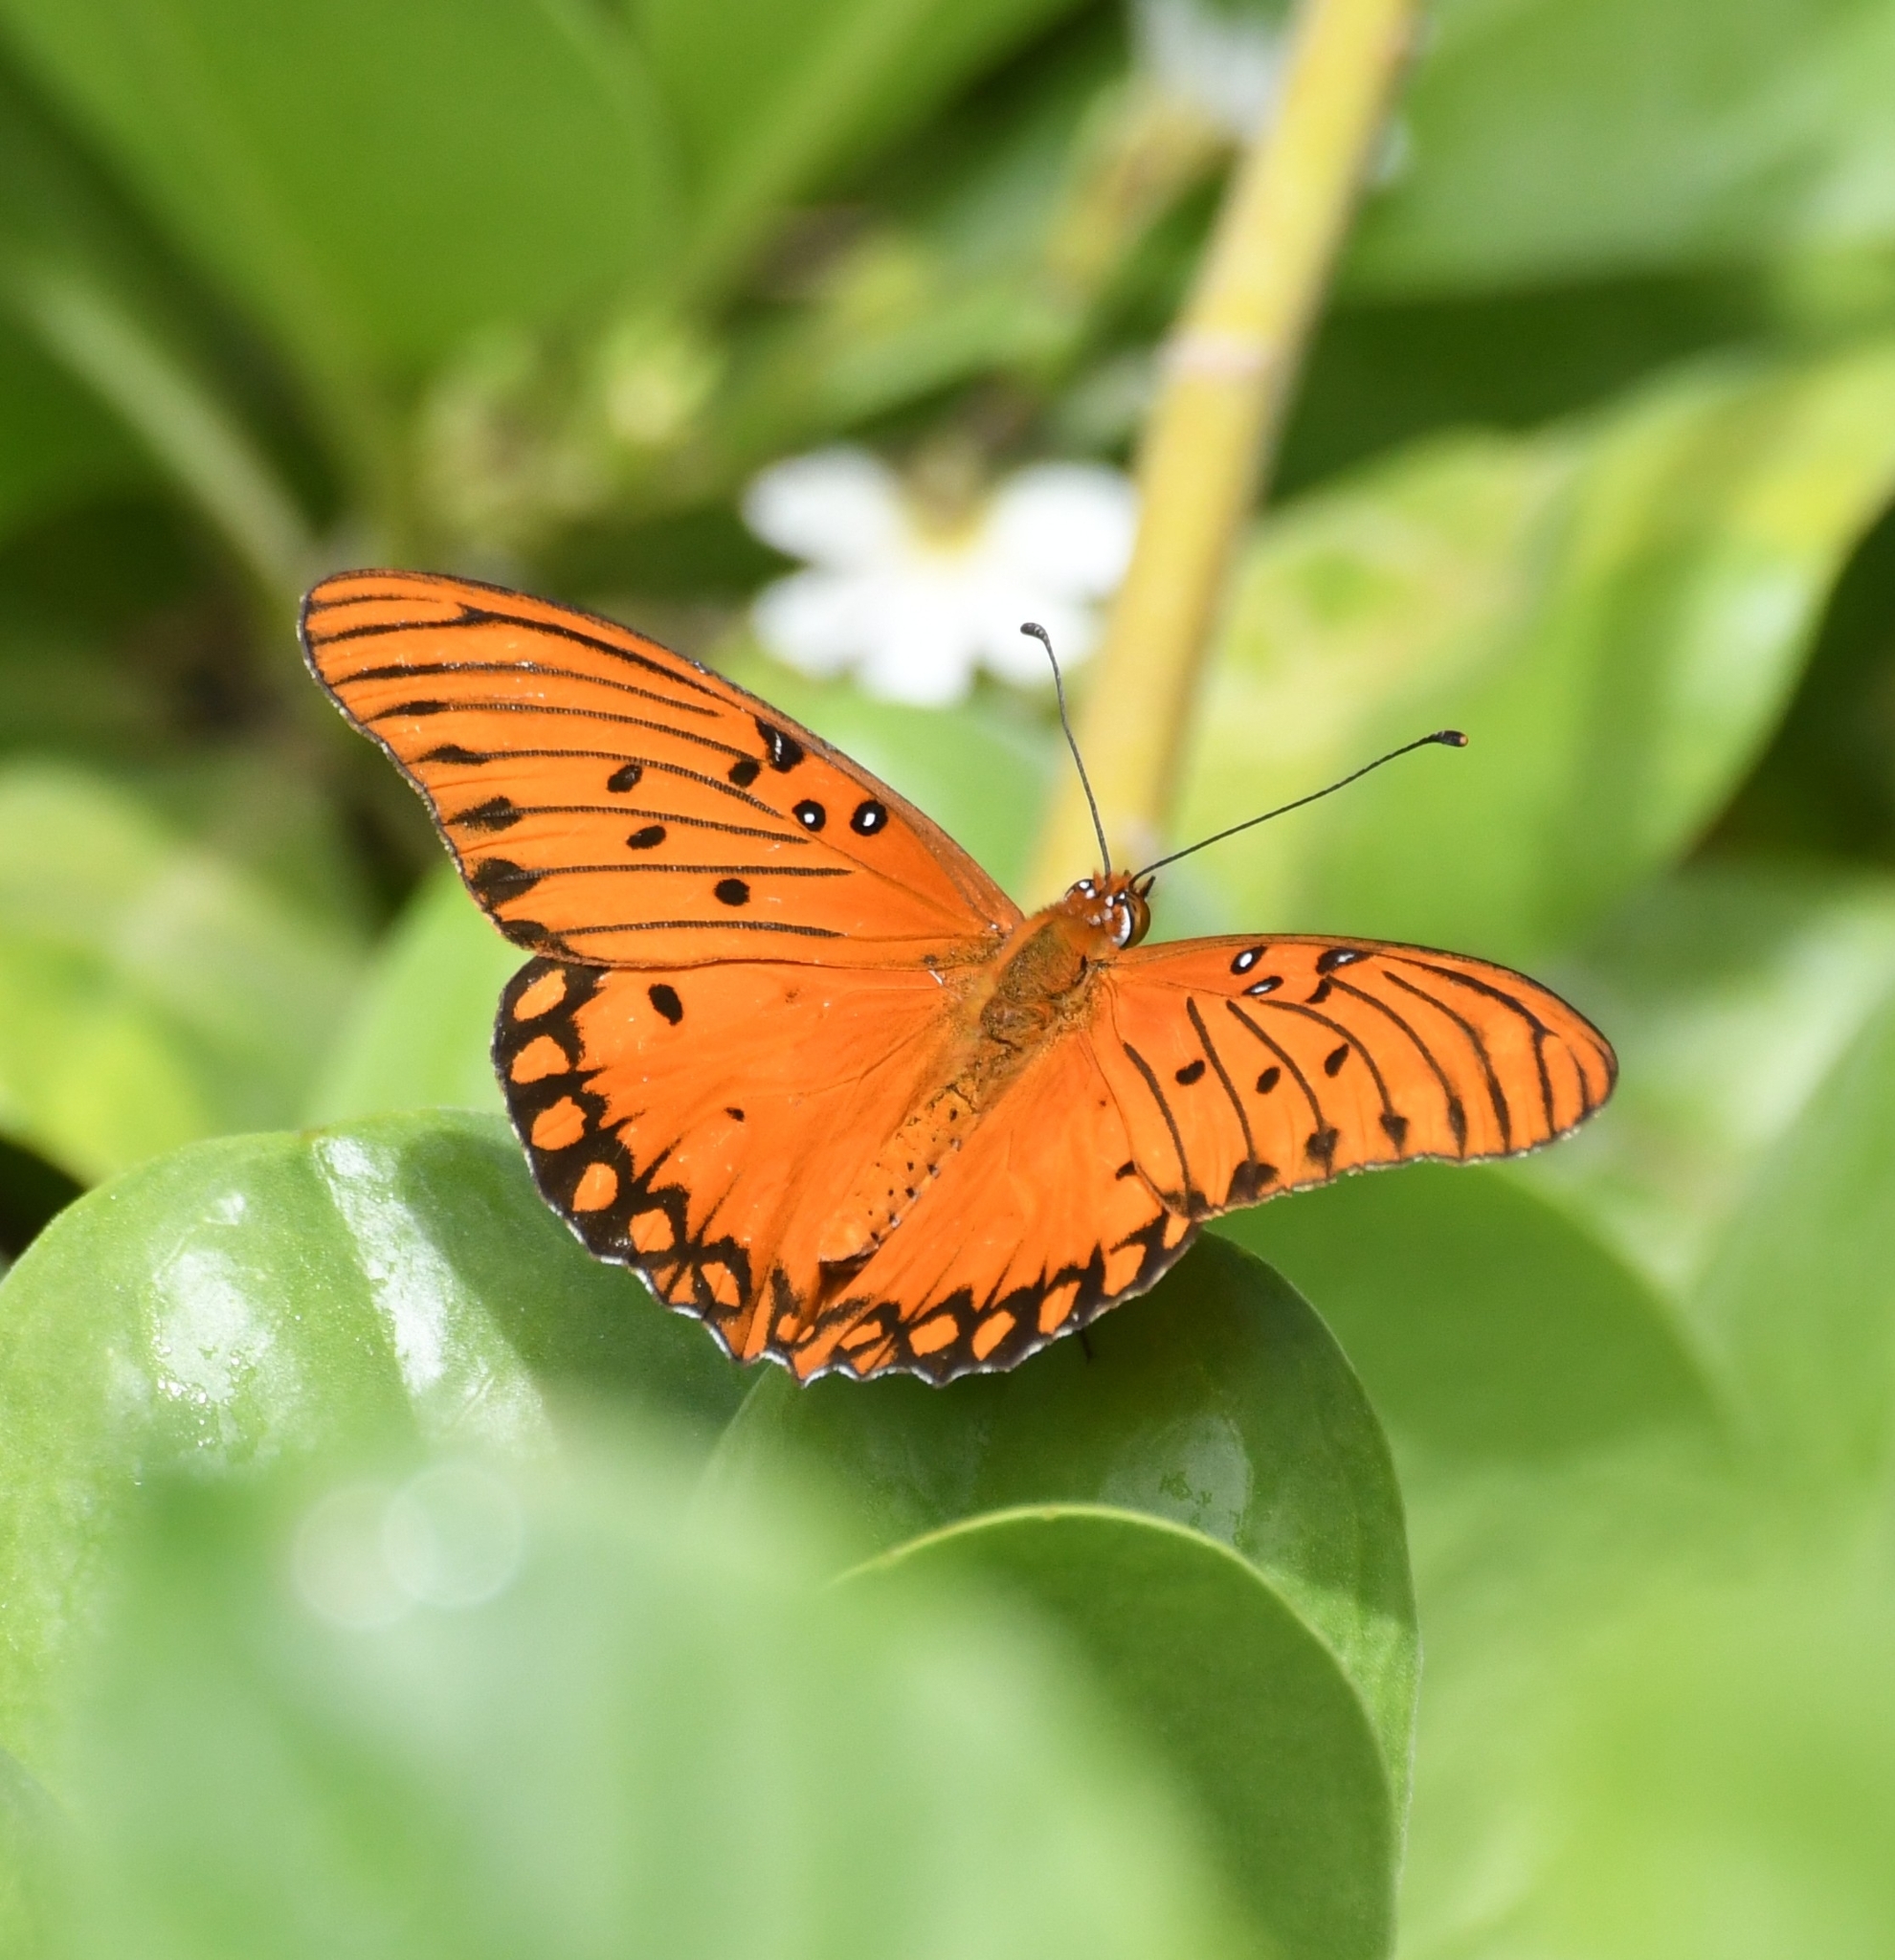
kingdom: Animalia
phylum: Arthropoda
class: Insecta
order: Lepidoptera
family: Nymphalidae
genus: Dione
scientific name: Dione vanillae
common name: Gulf fritillary
